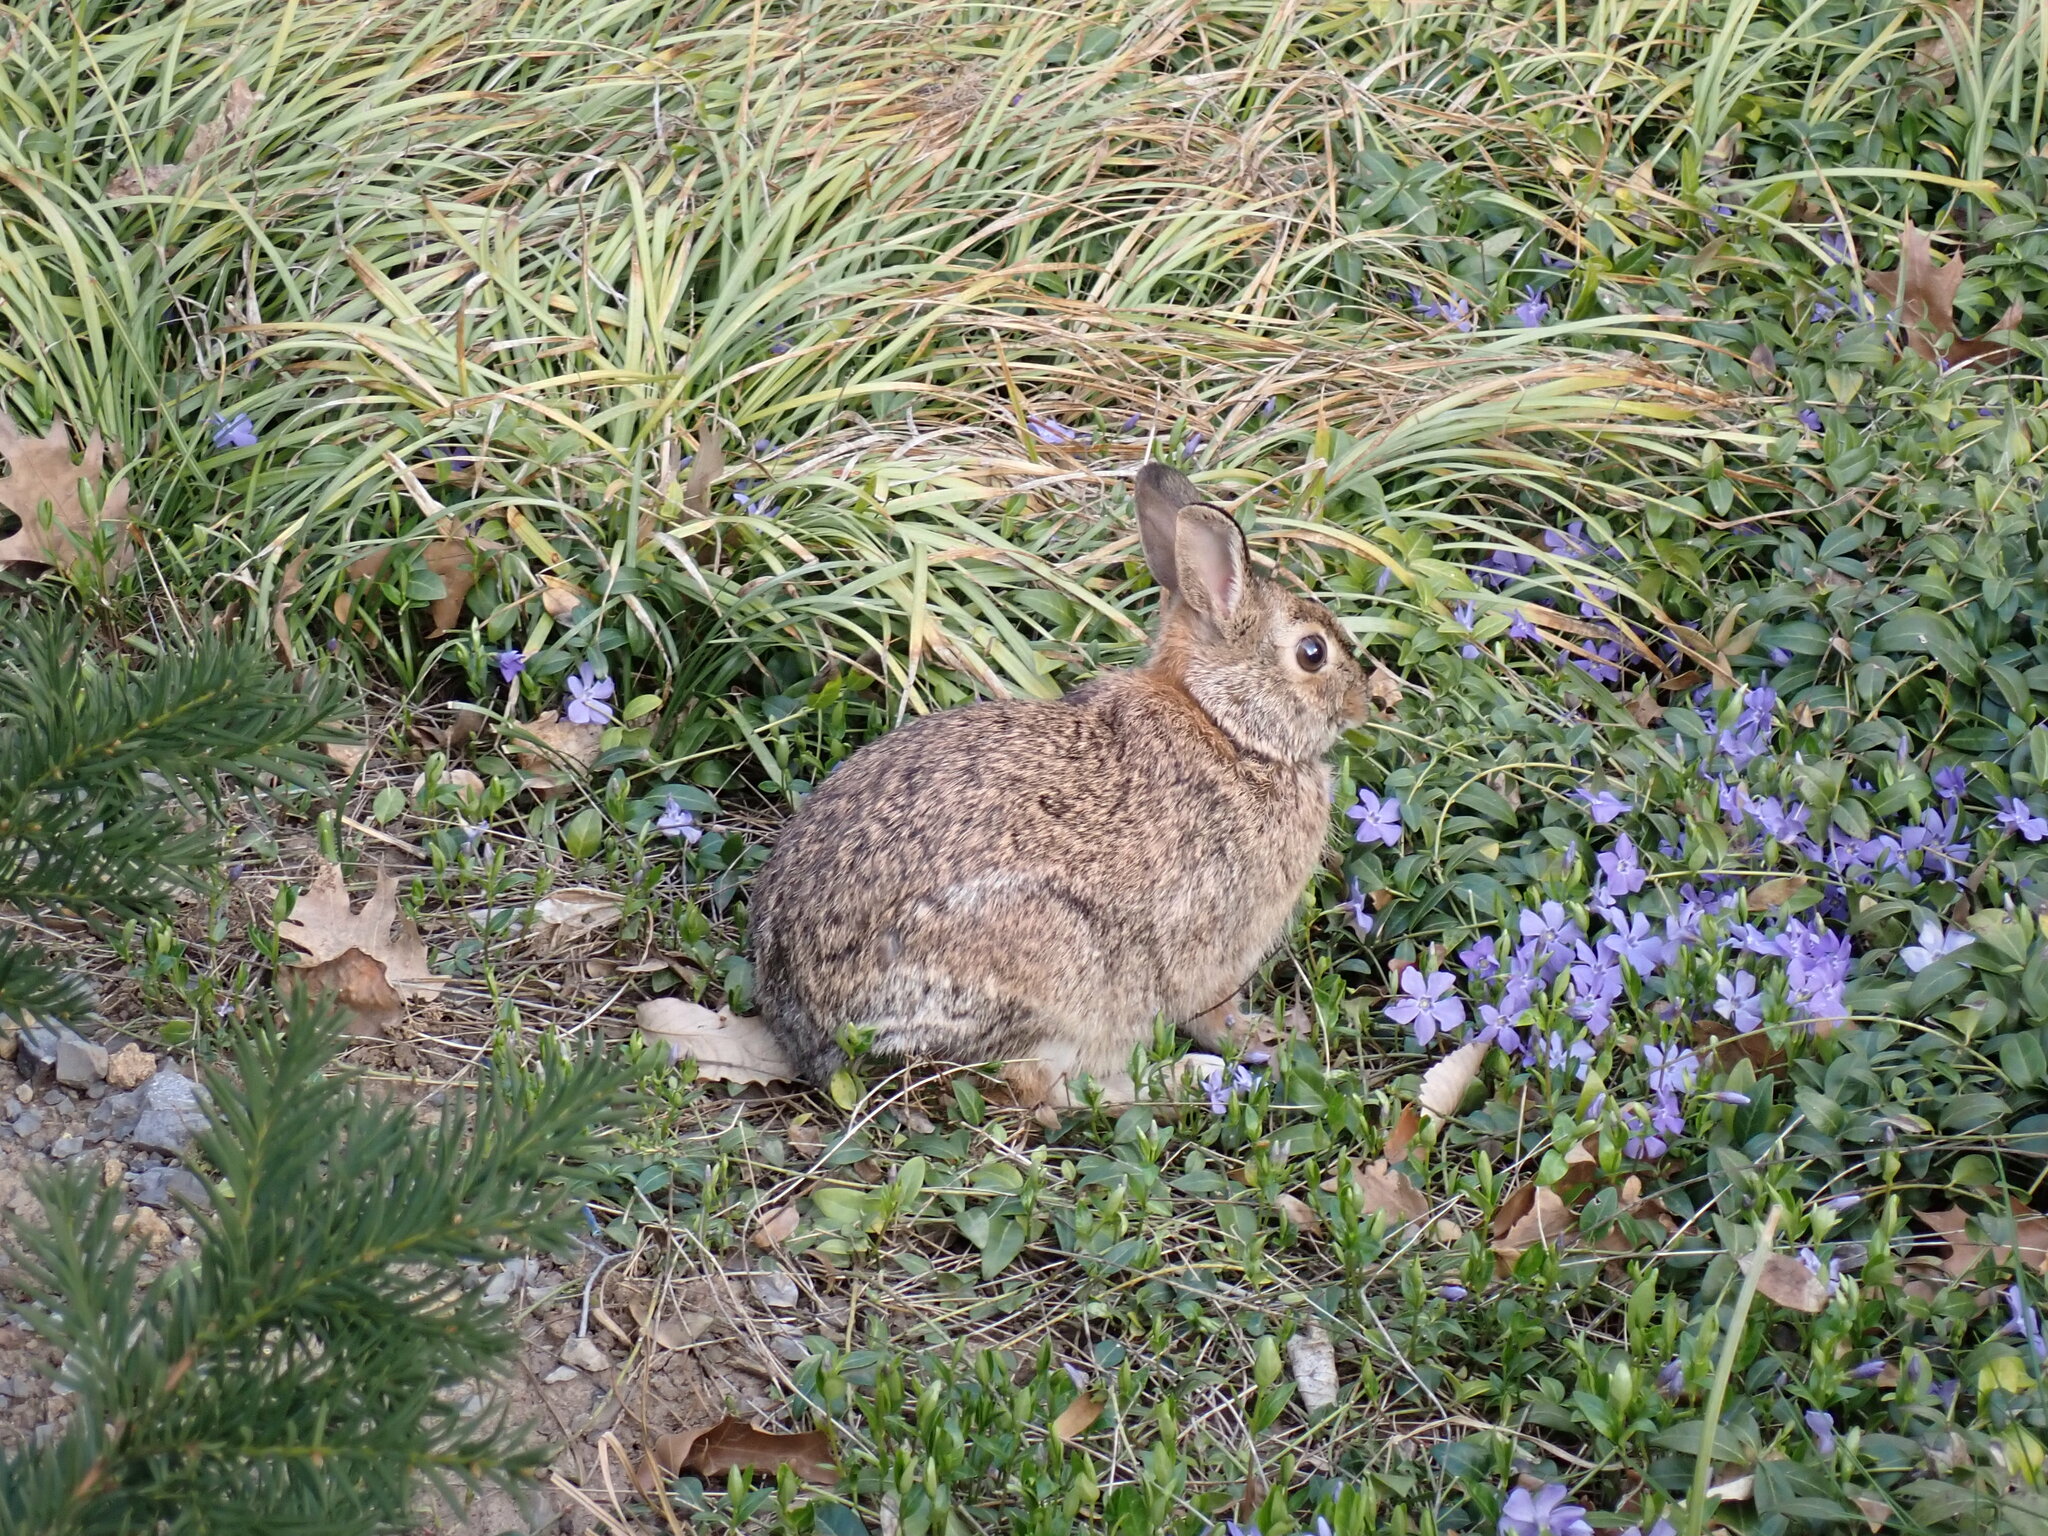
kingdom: Animalia
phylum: Chordata
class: Mammalia
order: Lagomorpha
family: Leporidae
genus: Sylvilagus
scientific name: Sylvilagus floridanus
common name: Eastern cottontail
